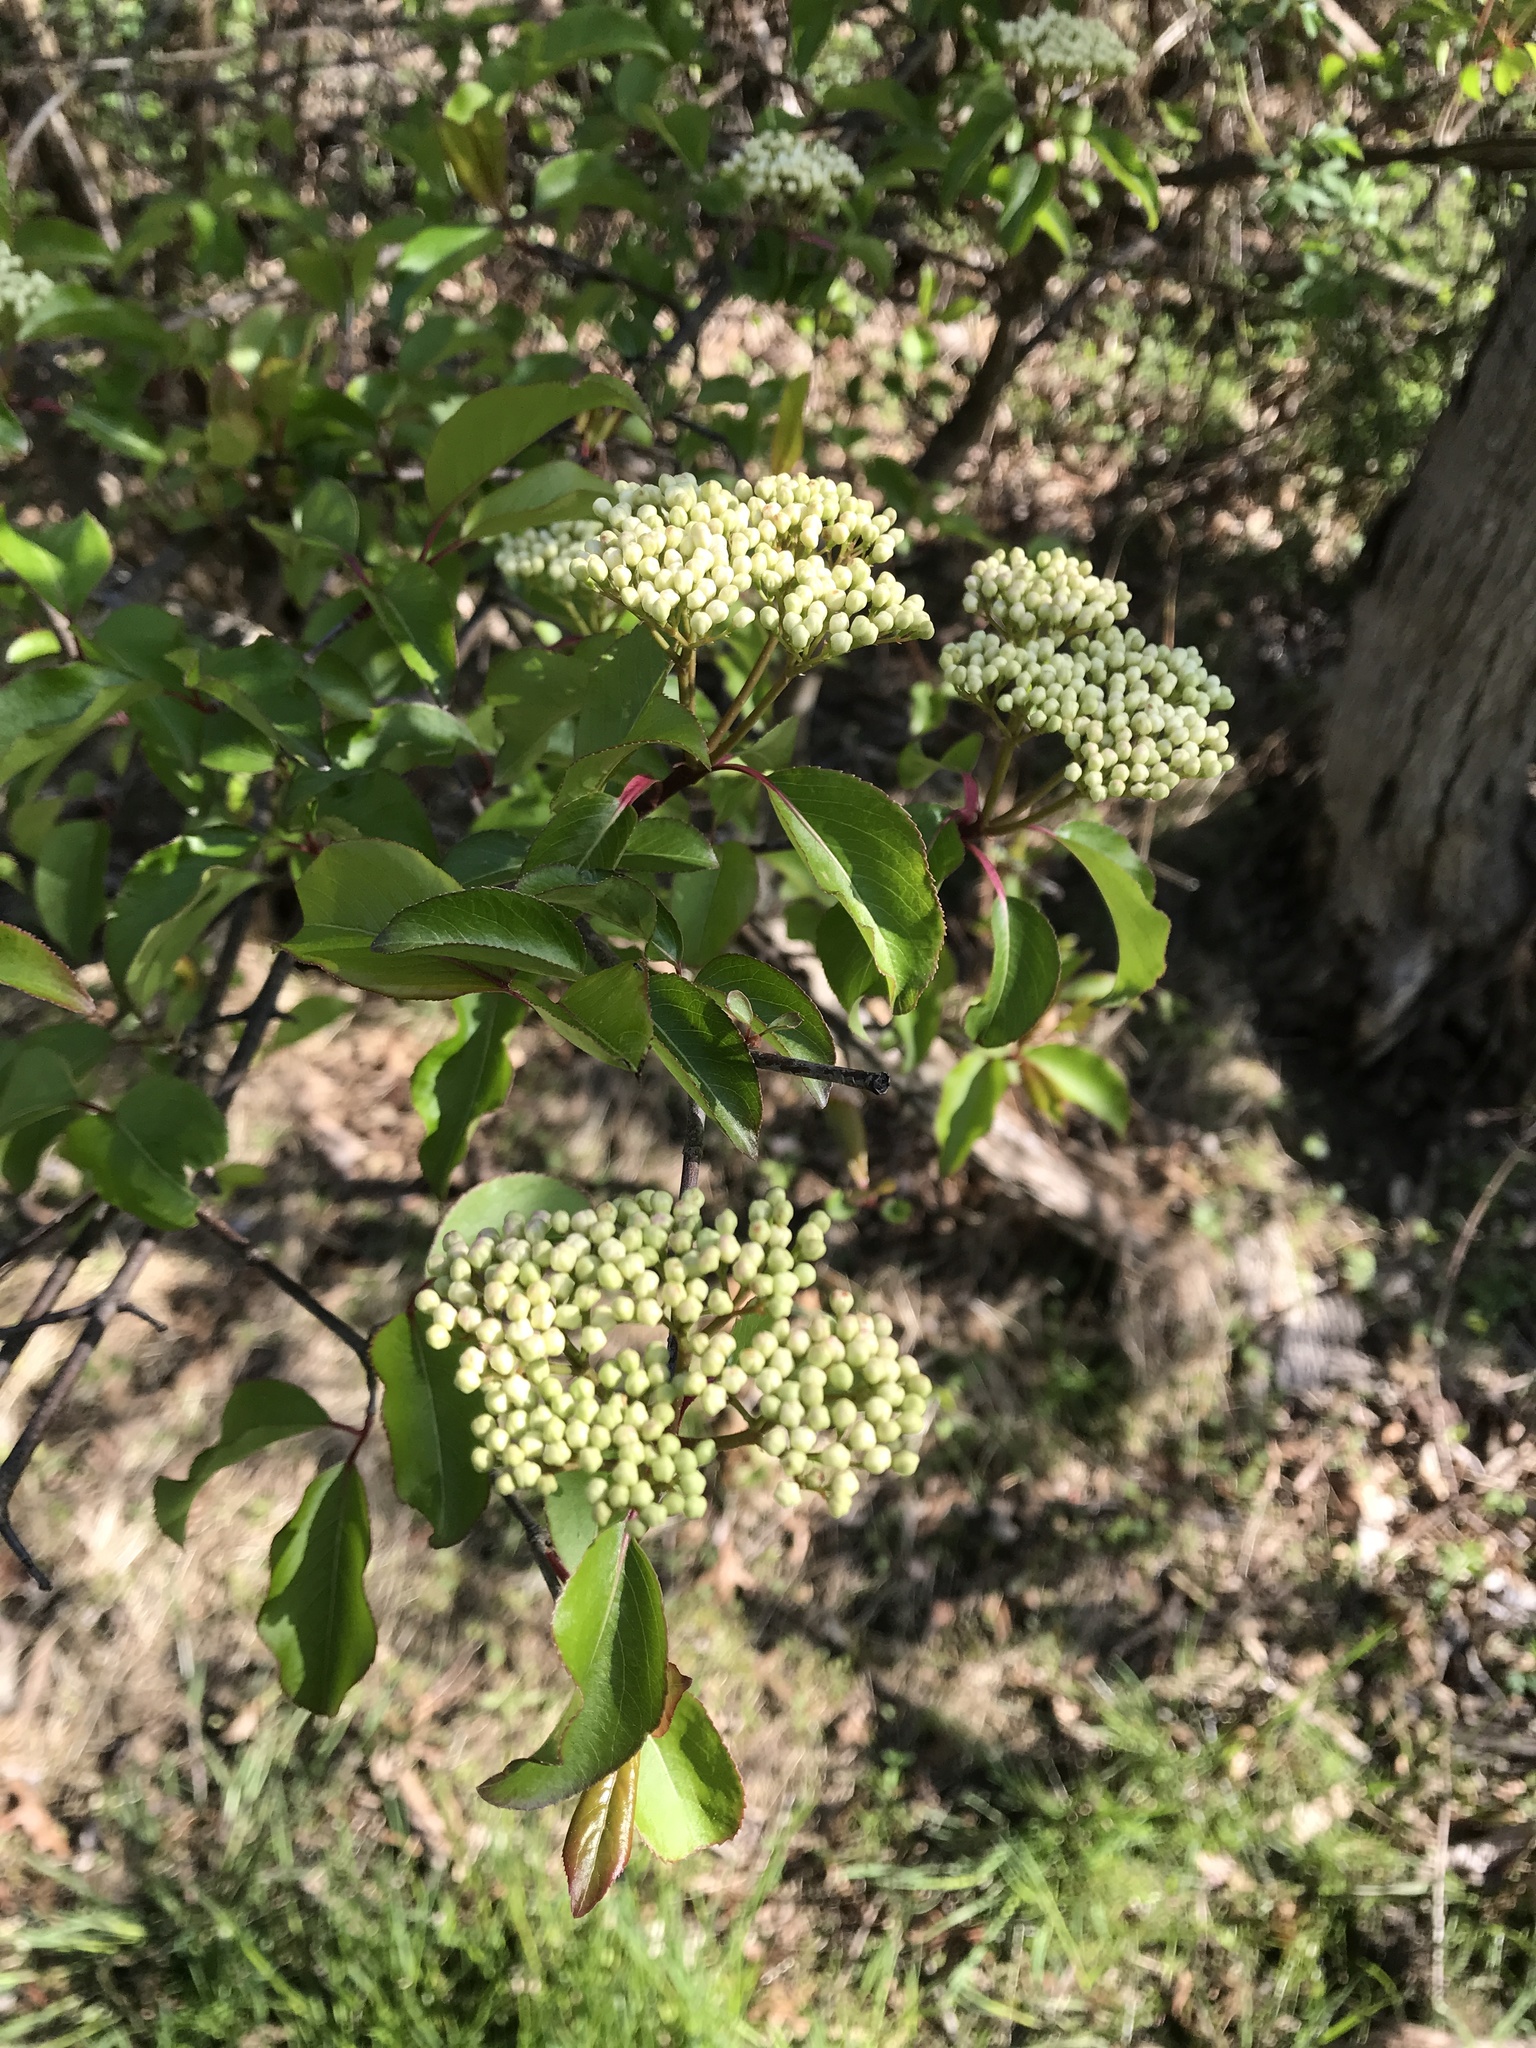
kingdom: Plantae
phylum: Tracheophyta
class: Magnoliopsida
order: Dipsacales
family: Viburnaceae
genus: Viburnum
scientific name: Viburnum prunifolium
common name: Black haw
